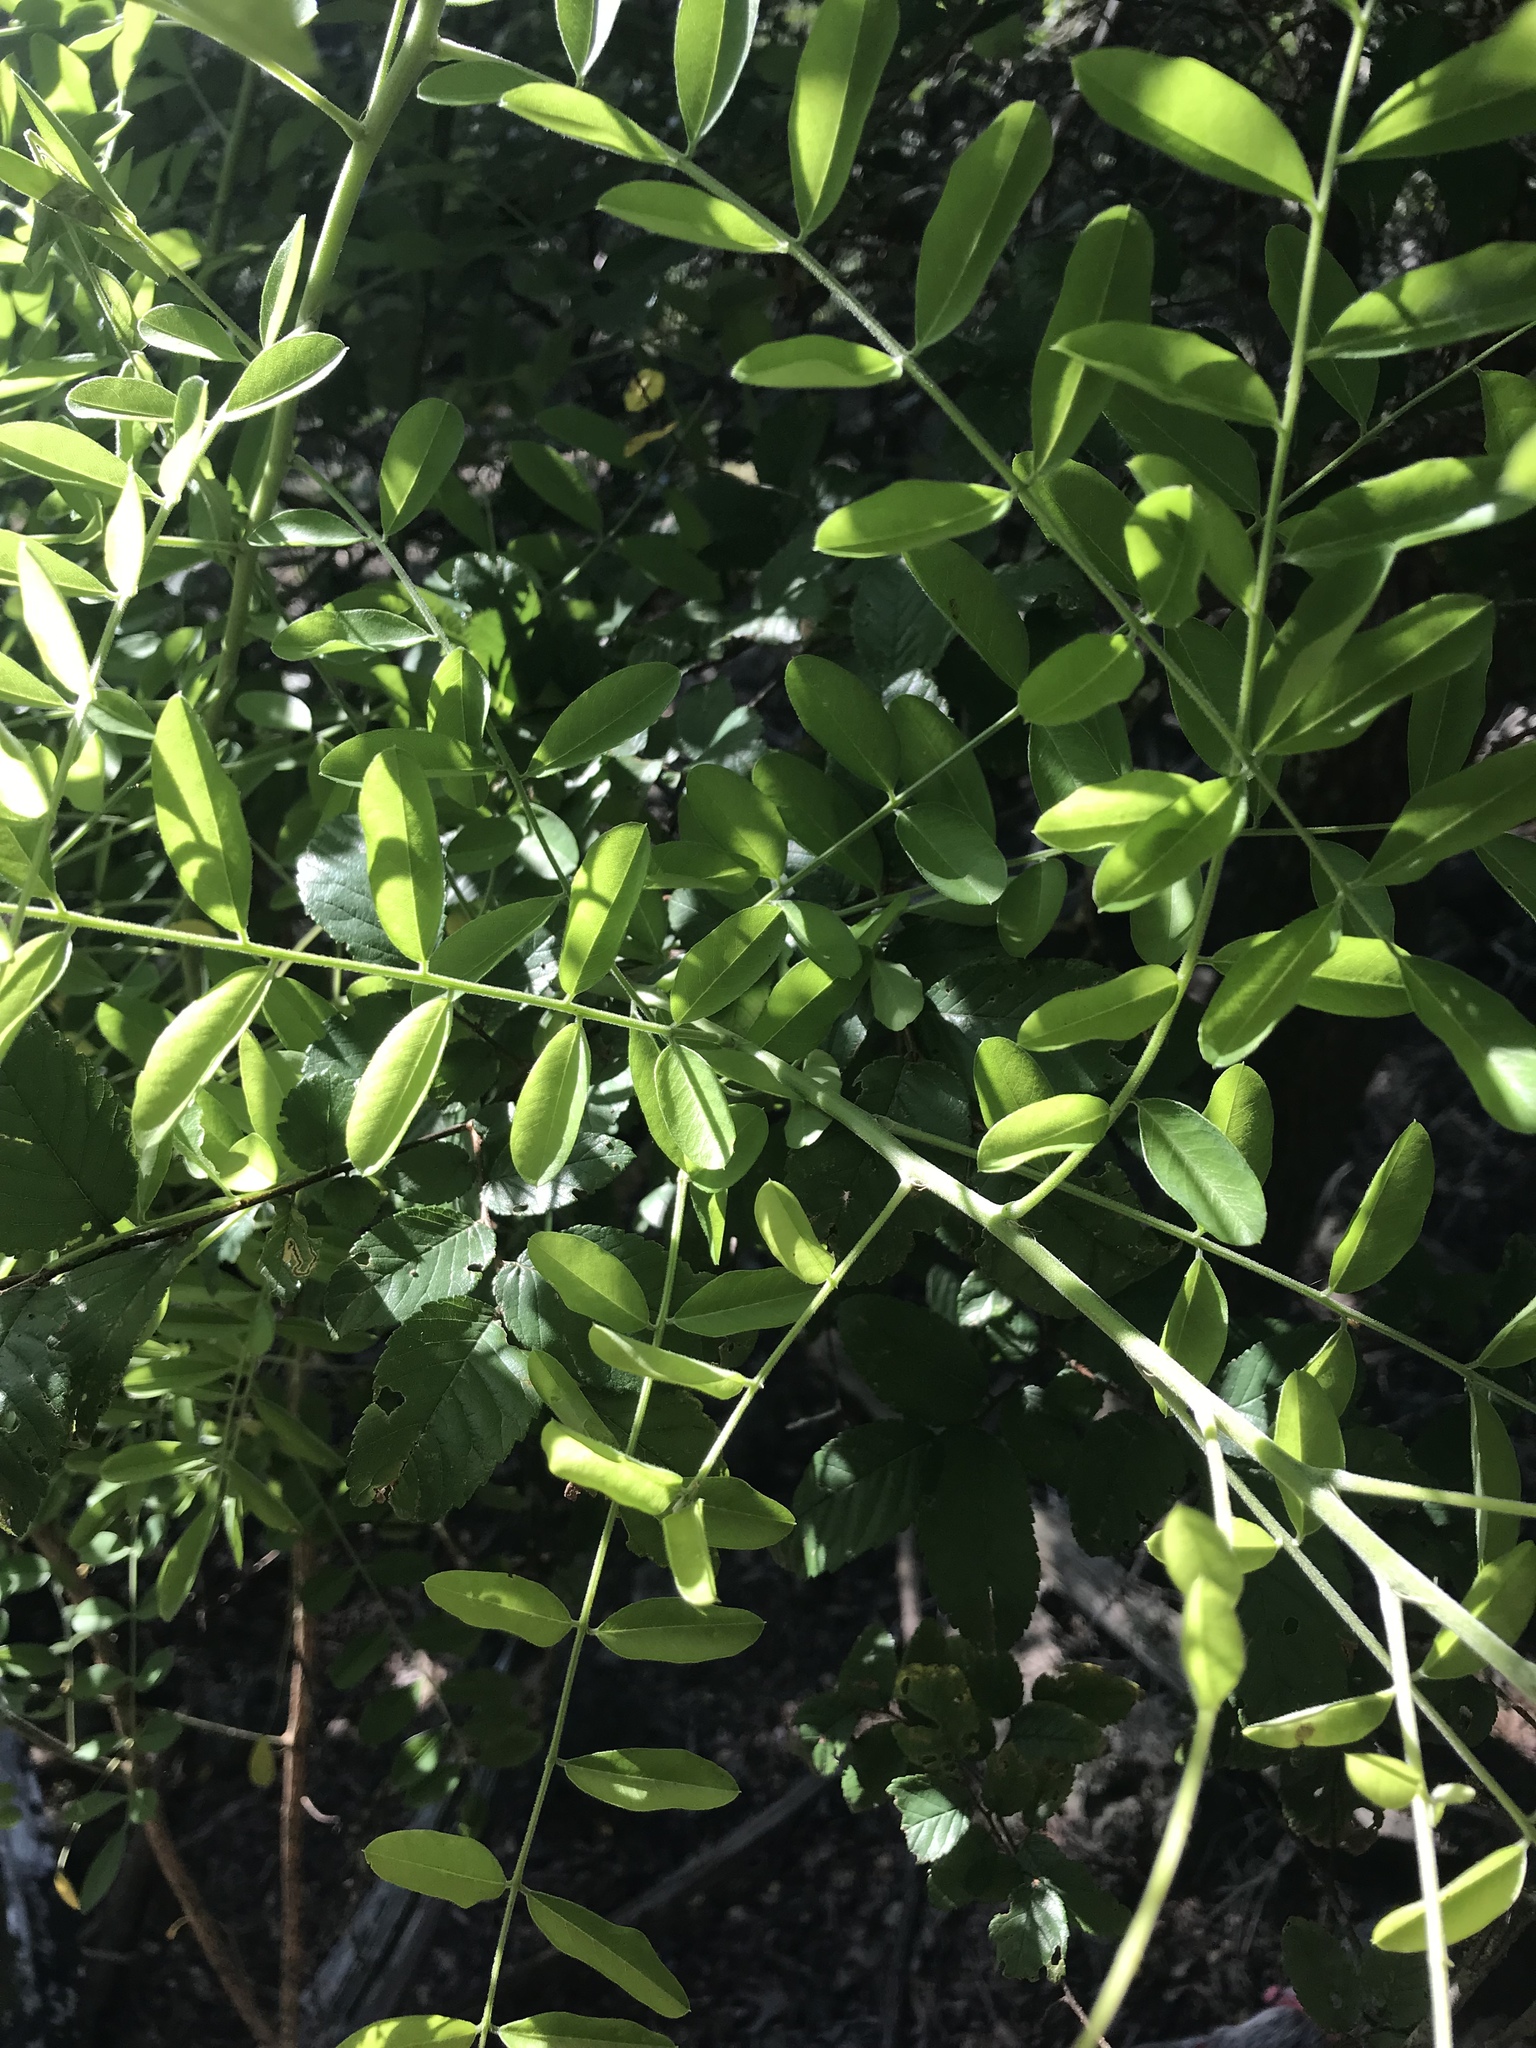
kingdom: Plantae
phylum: Tracheophyta
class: Magnoliopsida
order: Fabales
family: Fabaceae
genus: Styphnolobium
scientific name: Styphnolobium affine
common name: Texas sophora
